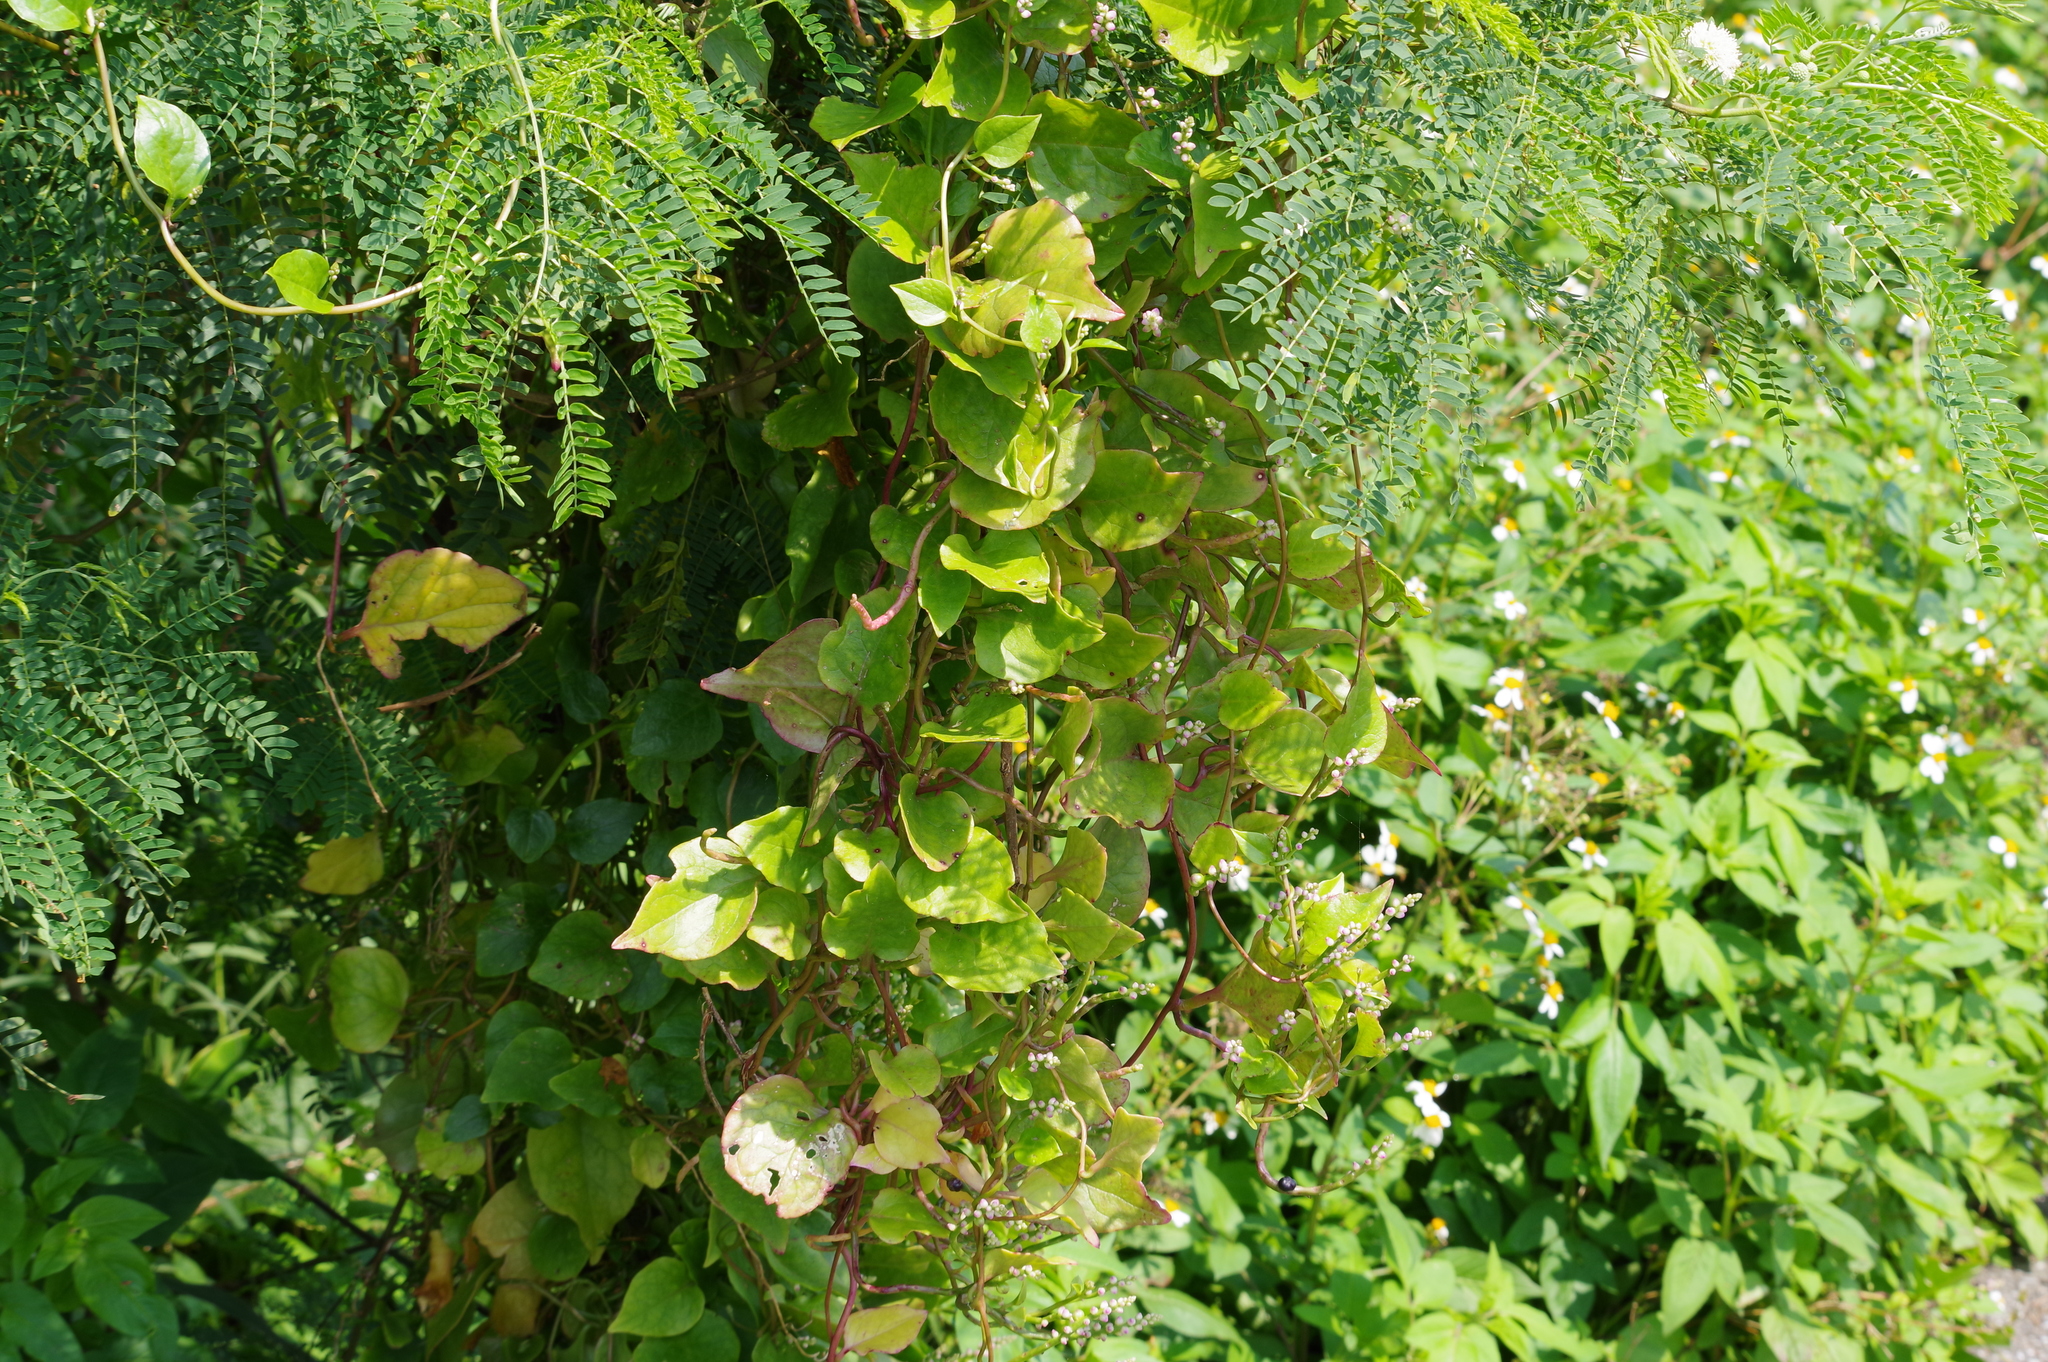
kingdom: Plantae
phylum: Tracheophyta
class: Magnoliopsida
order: Caryophyllales
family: Basellaceae
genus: Basella
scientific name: Basella alba
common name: Indian spinach
